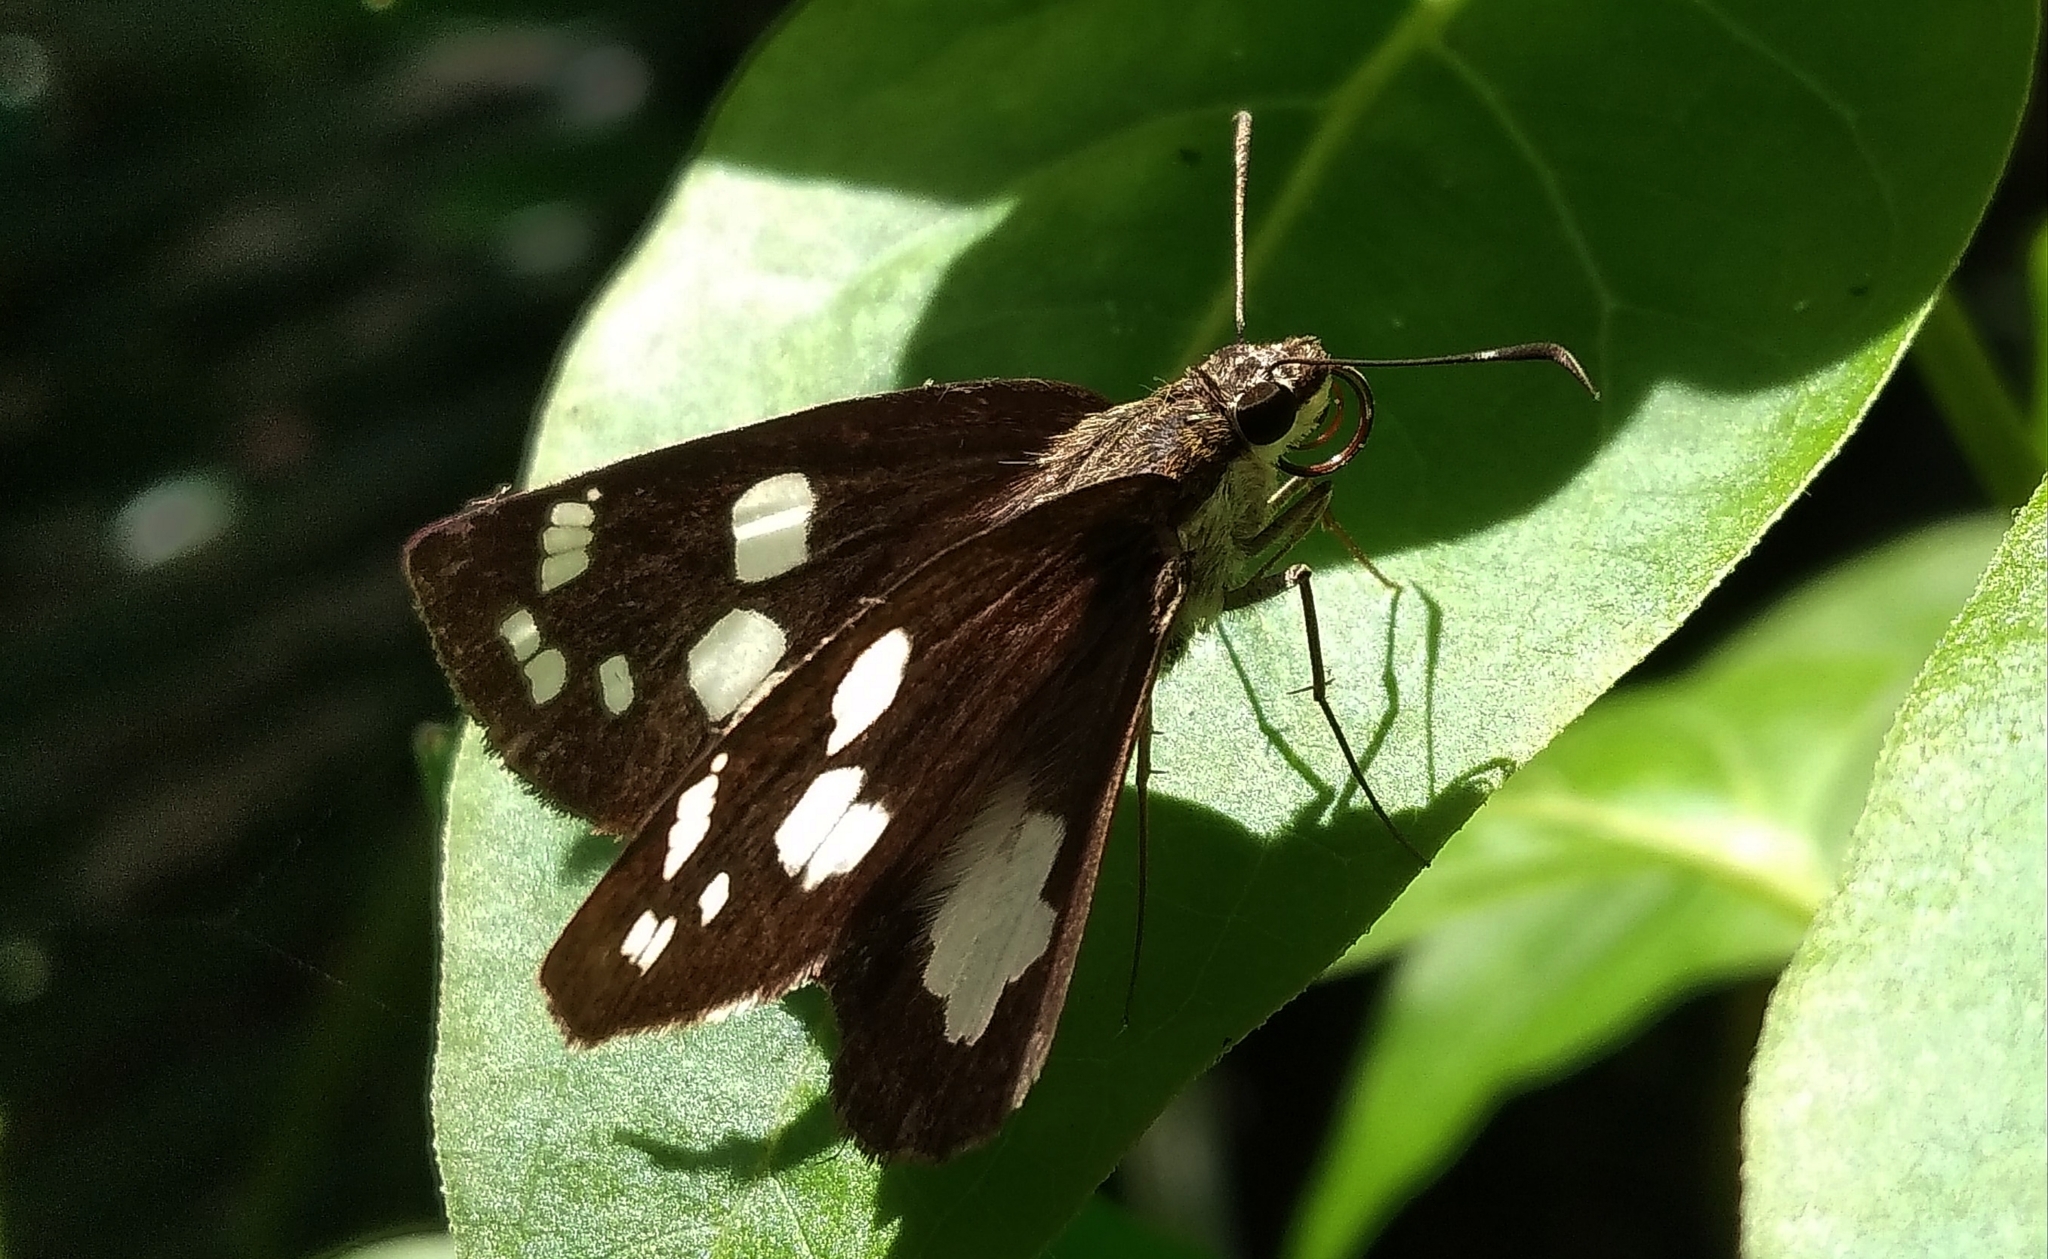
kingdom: Animalia
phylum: Arthropoda
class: Insecta
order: Lepidoptera
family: Hesperiidae
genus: Udaspes
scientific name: Udaspes folus
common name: Grass demon
